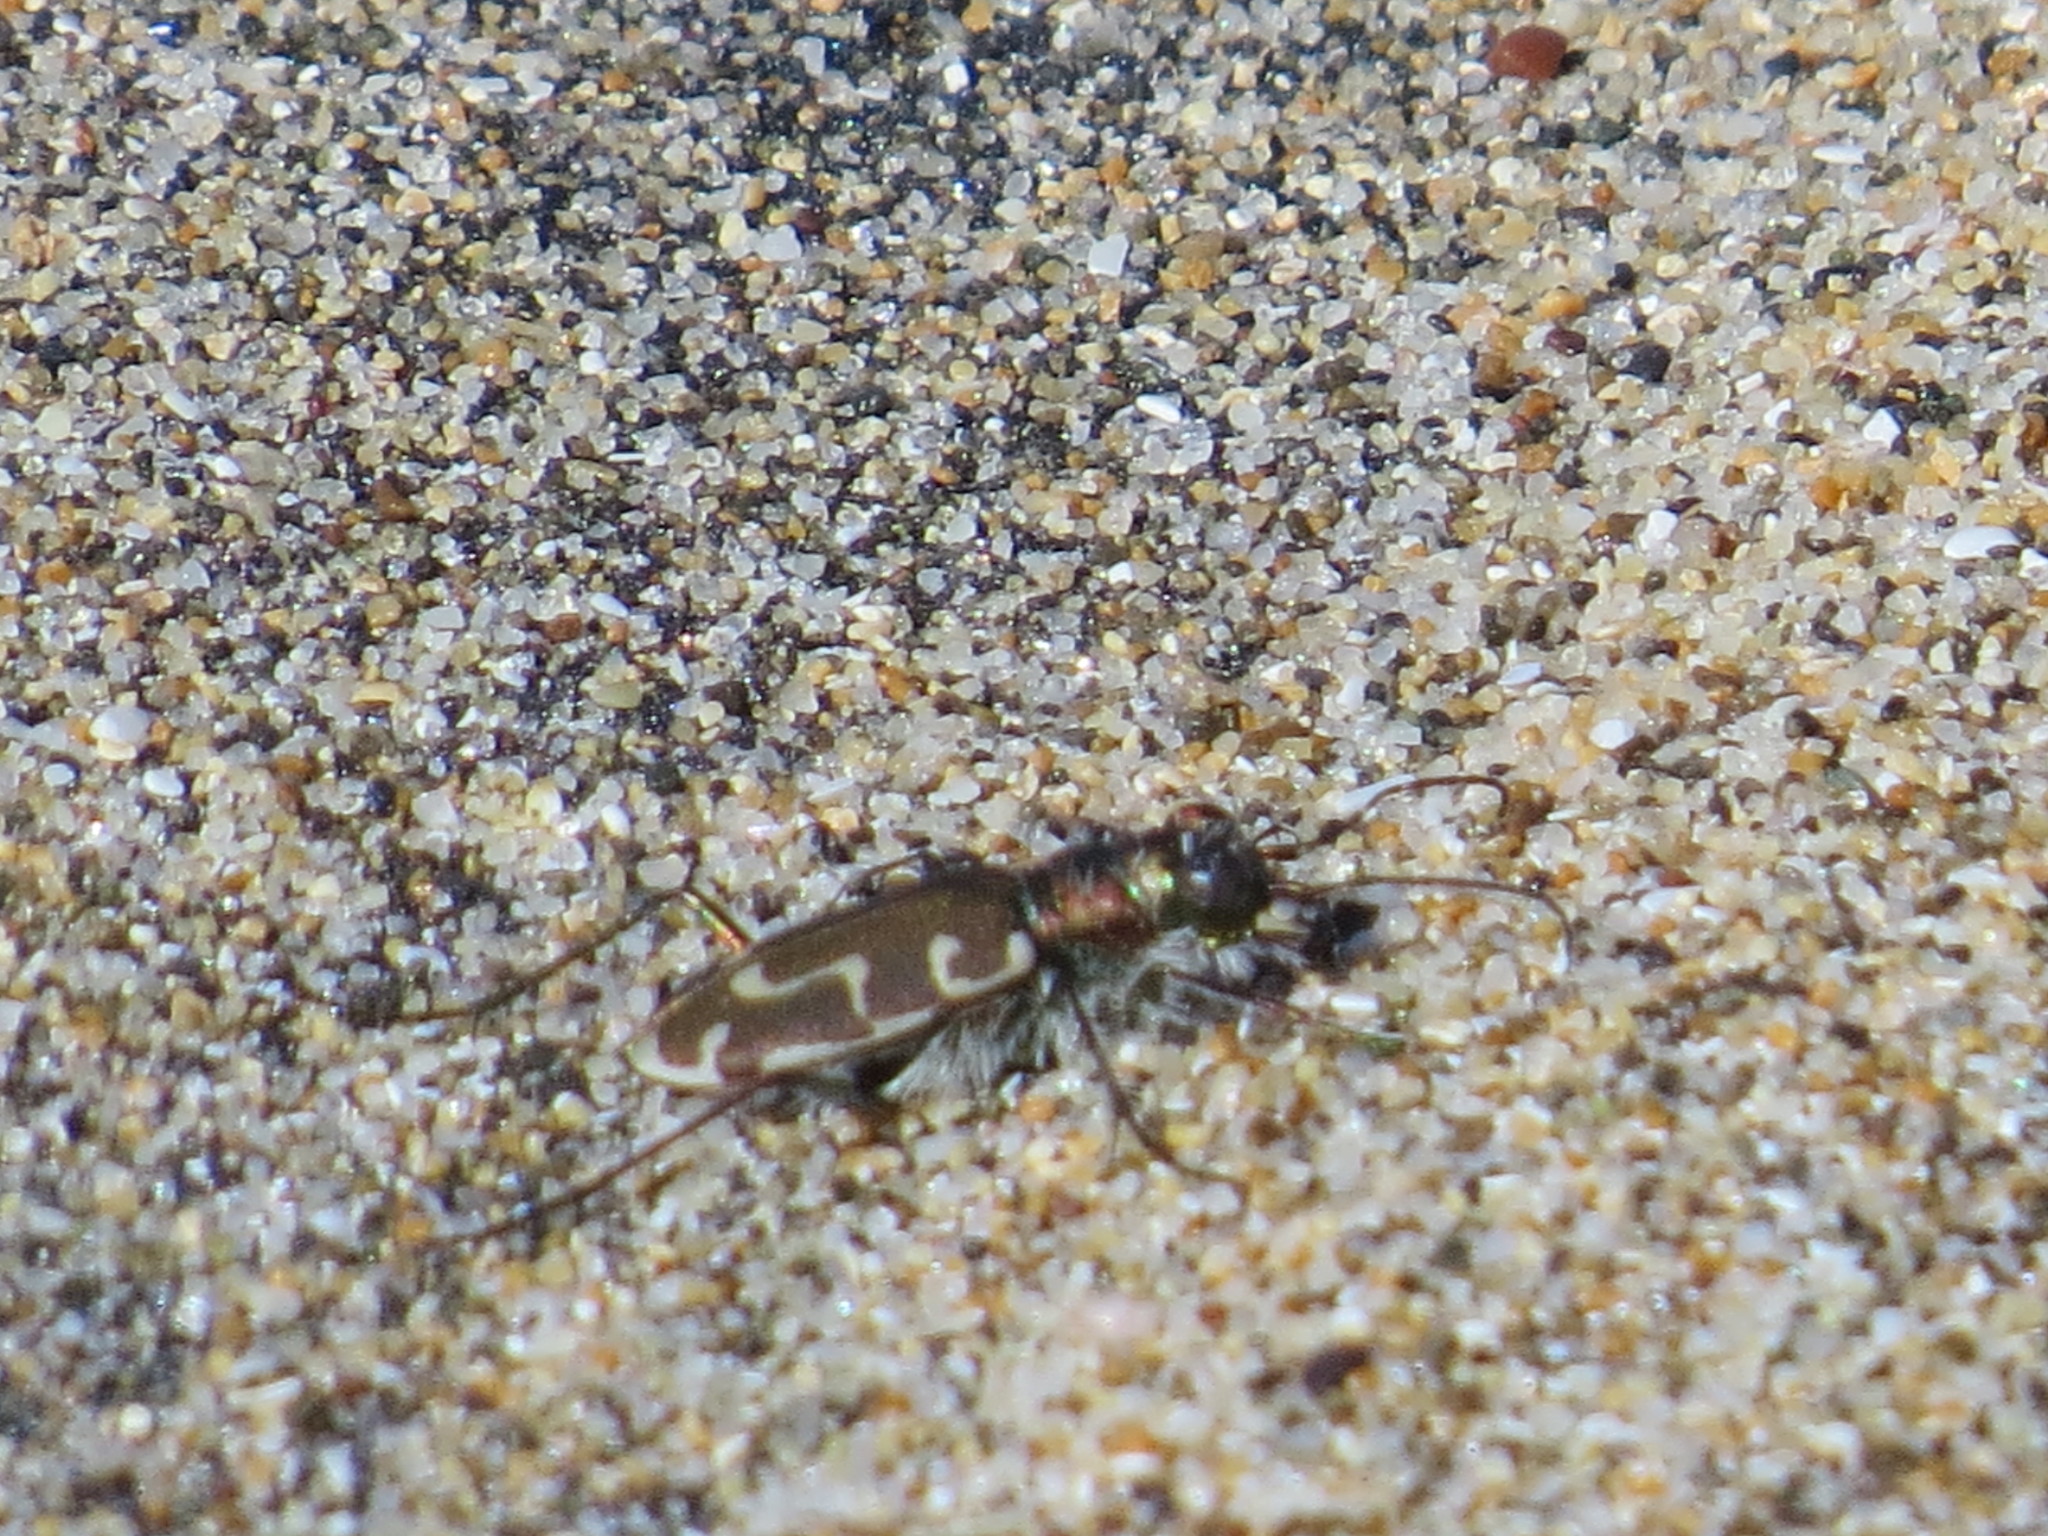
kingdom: Animalia
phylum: Arthropoda
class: Insecta
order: Coleoptera
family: Carabidae
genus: Cicindela
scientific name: Cicindela hirticollis
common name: Hairy-necked tiger beetle
